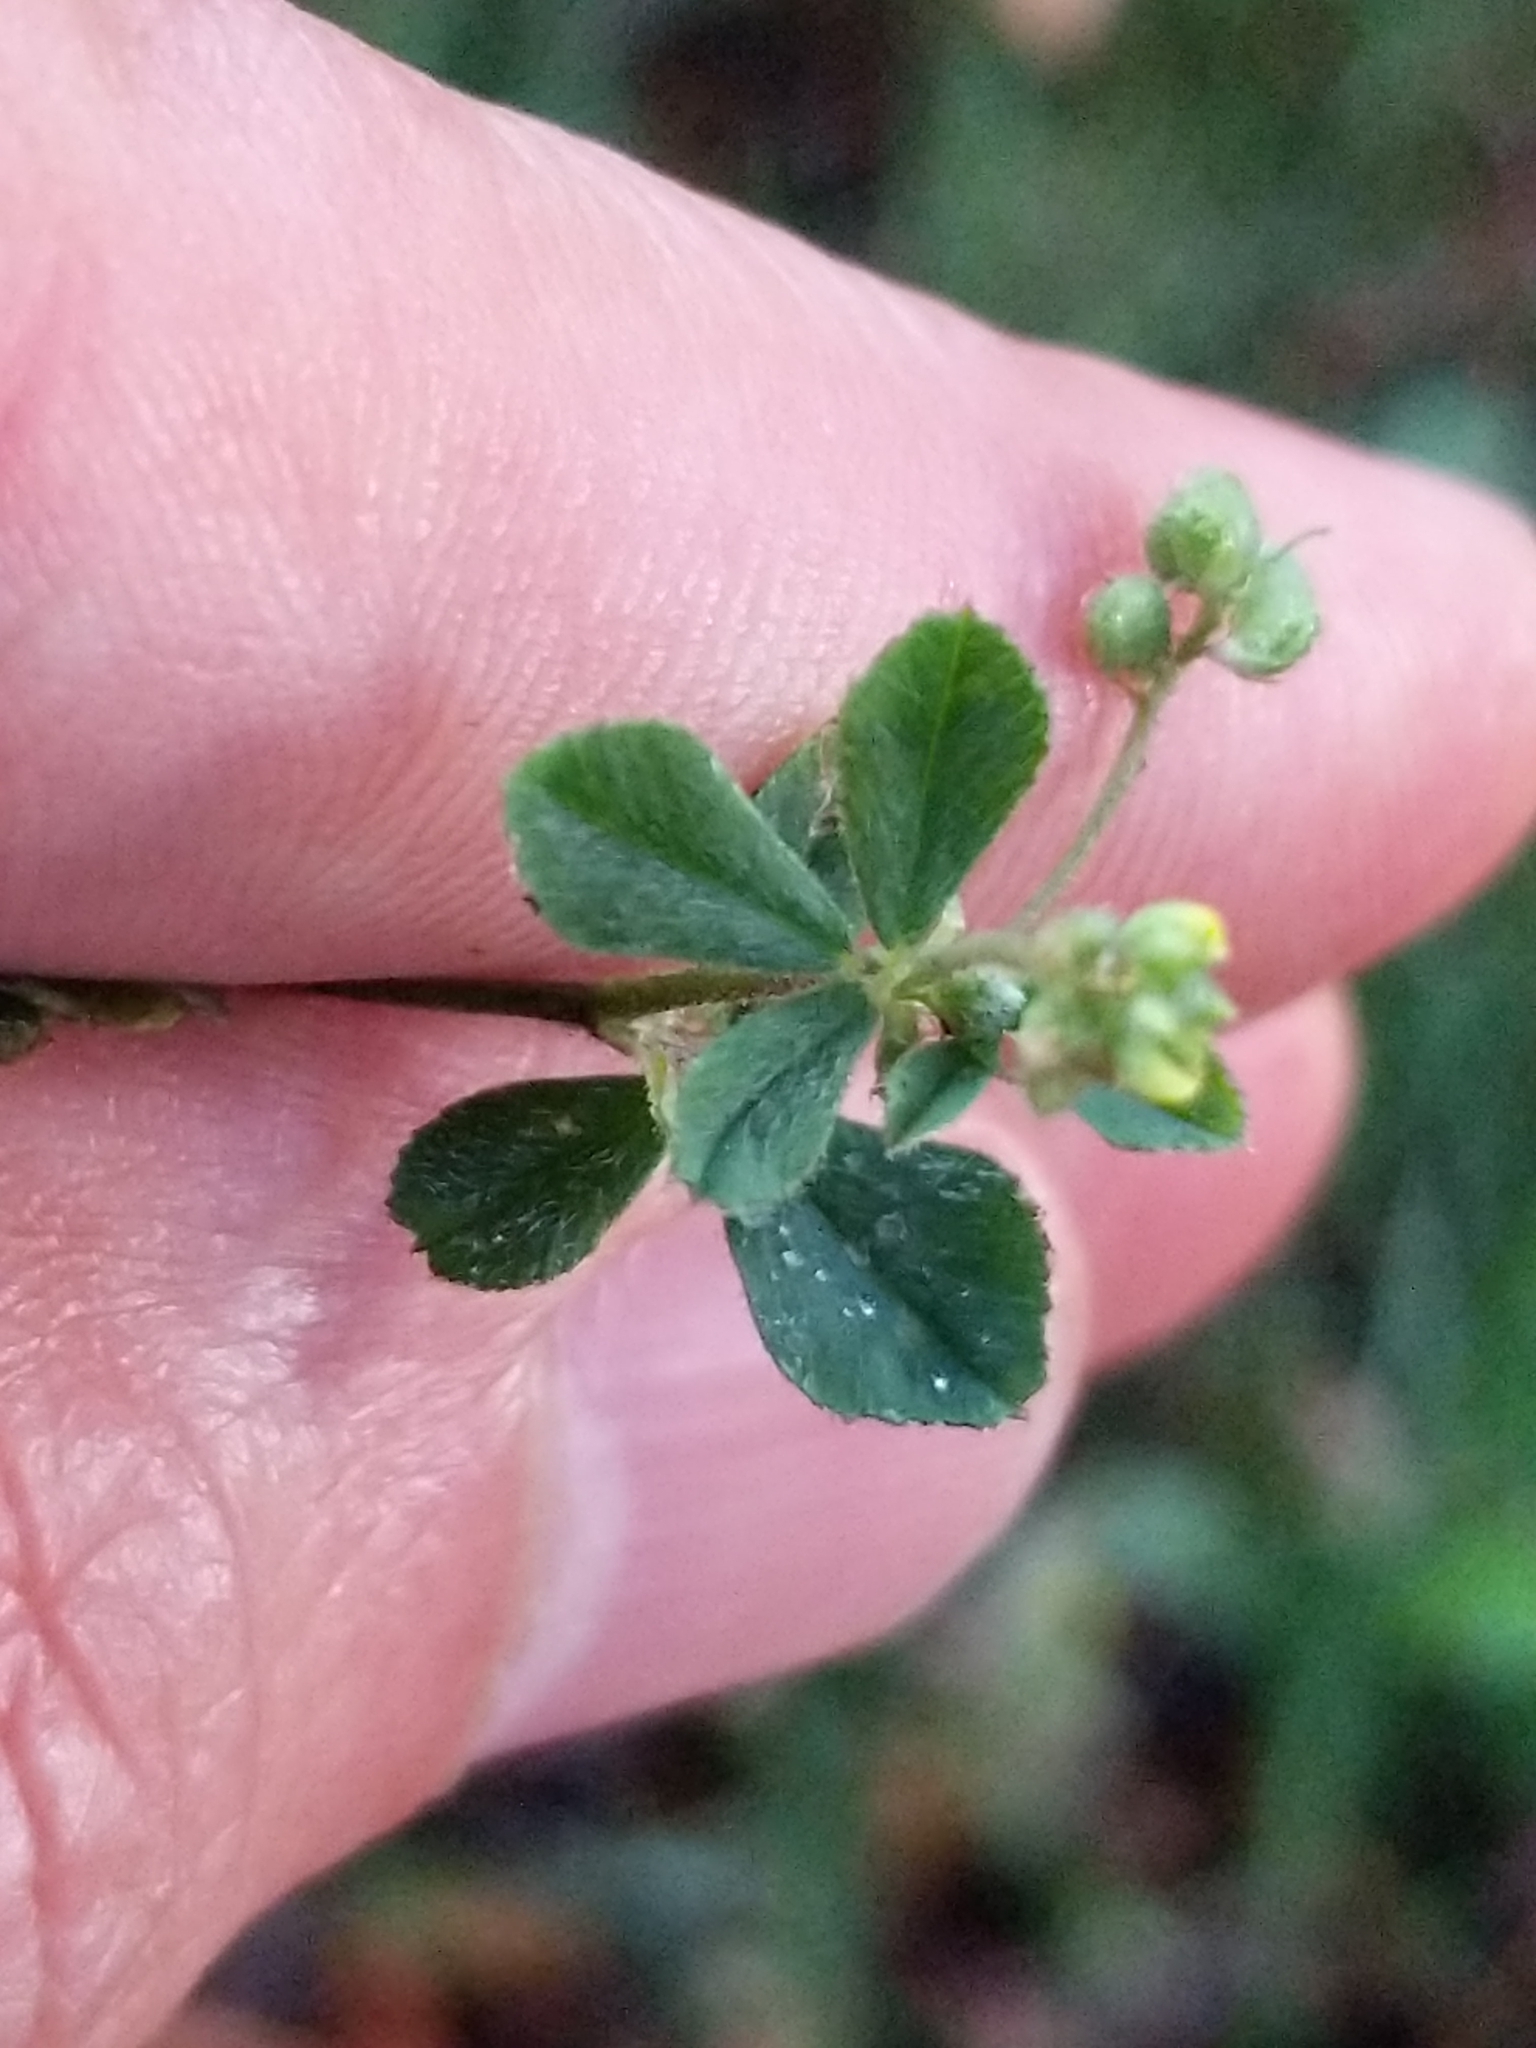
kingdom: Plantae
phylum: Tracheophyta
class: Magnoliopsida
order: Fabales
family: Fabaceae
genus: Medicago
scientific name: Medicago lupulina
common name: Black medick
